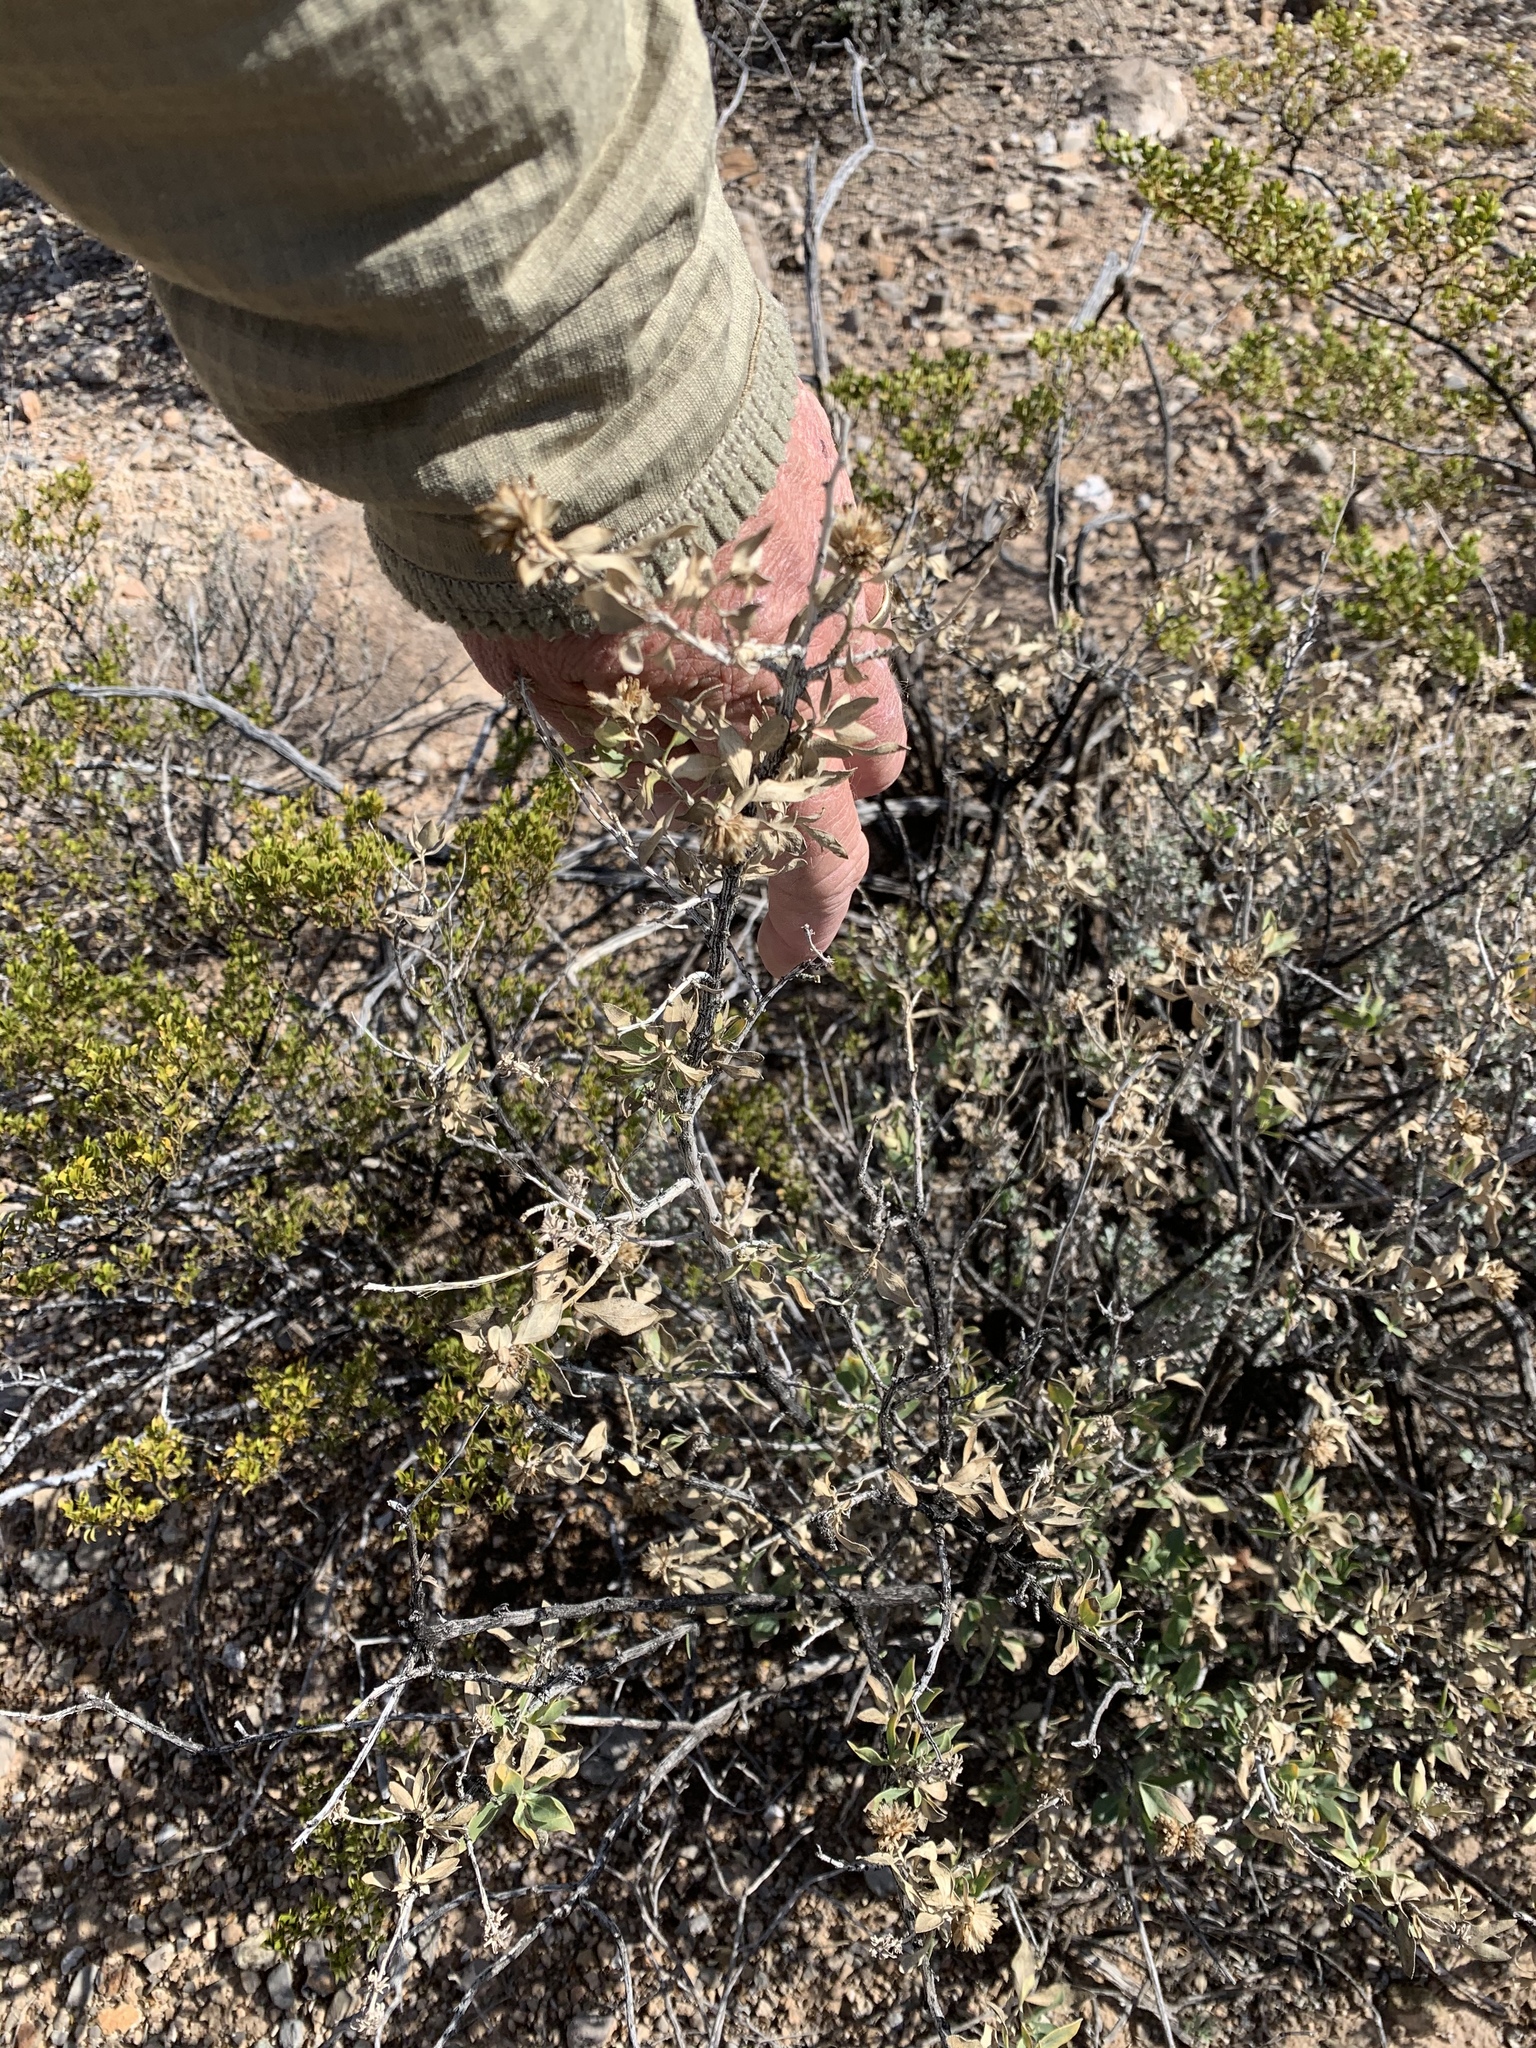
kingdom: Plantae
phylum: Tracheophyta
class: Magnoliopsida
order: Asterales
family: Asteraceae
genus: Flourensia
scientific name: Flourensia cernua
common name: Varnishbush
